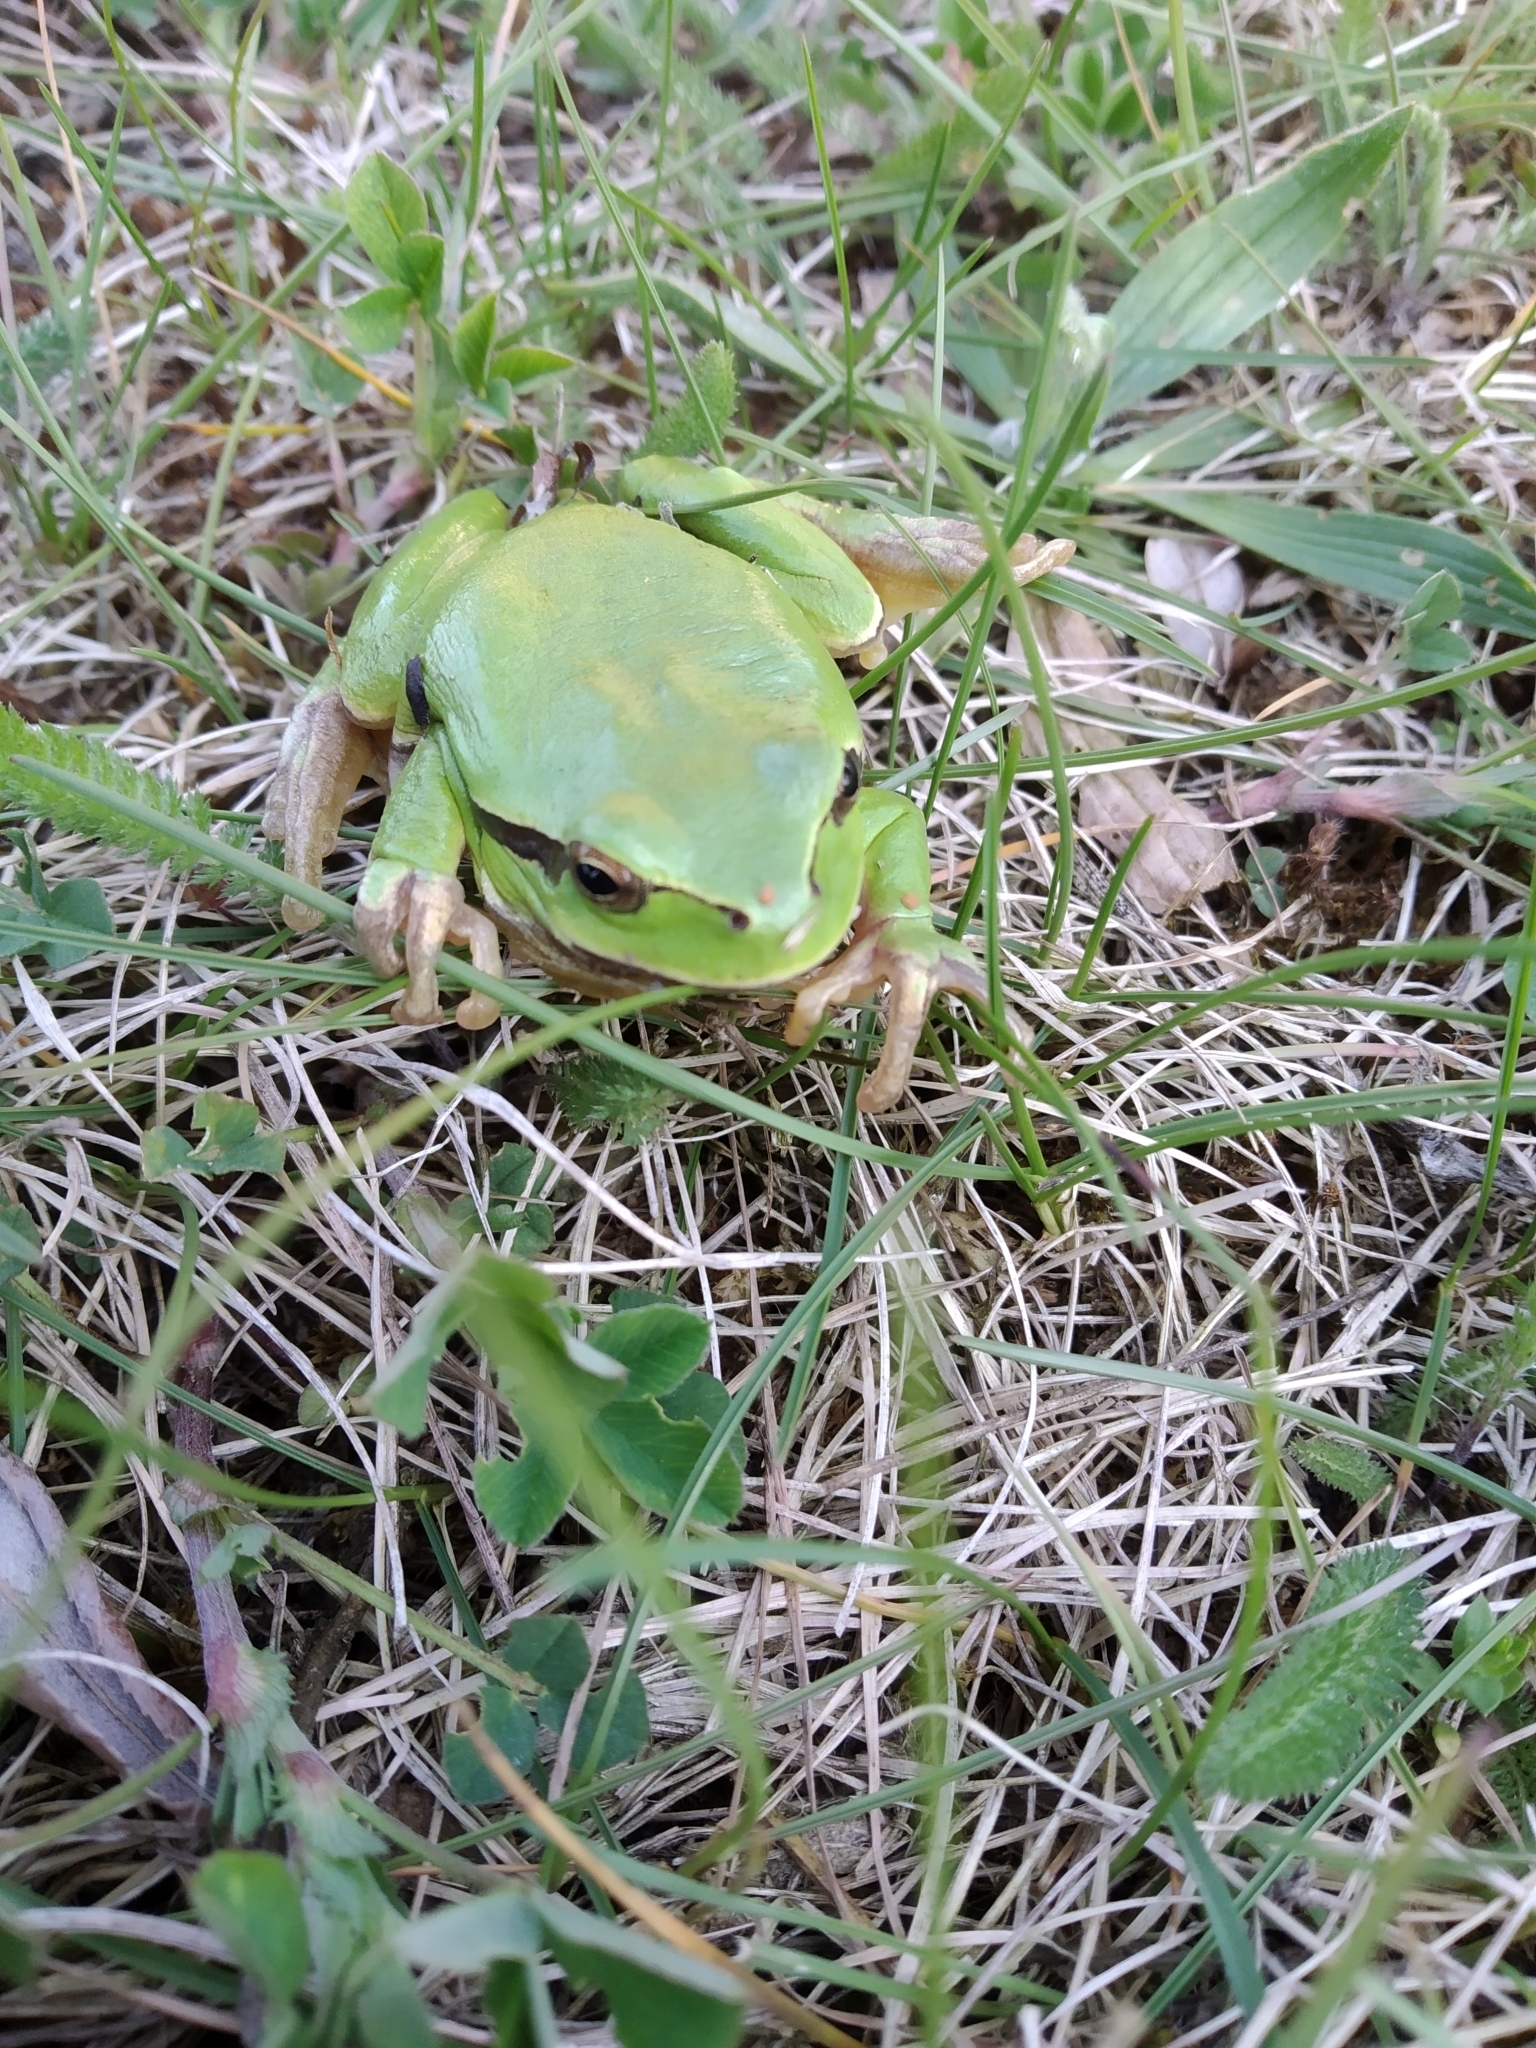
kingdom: Animalia
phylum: Chordata
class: Amphibia
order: Anura
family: Hylidae
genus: Hyla
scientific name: Hyla arborea
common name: Common tree frog
